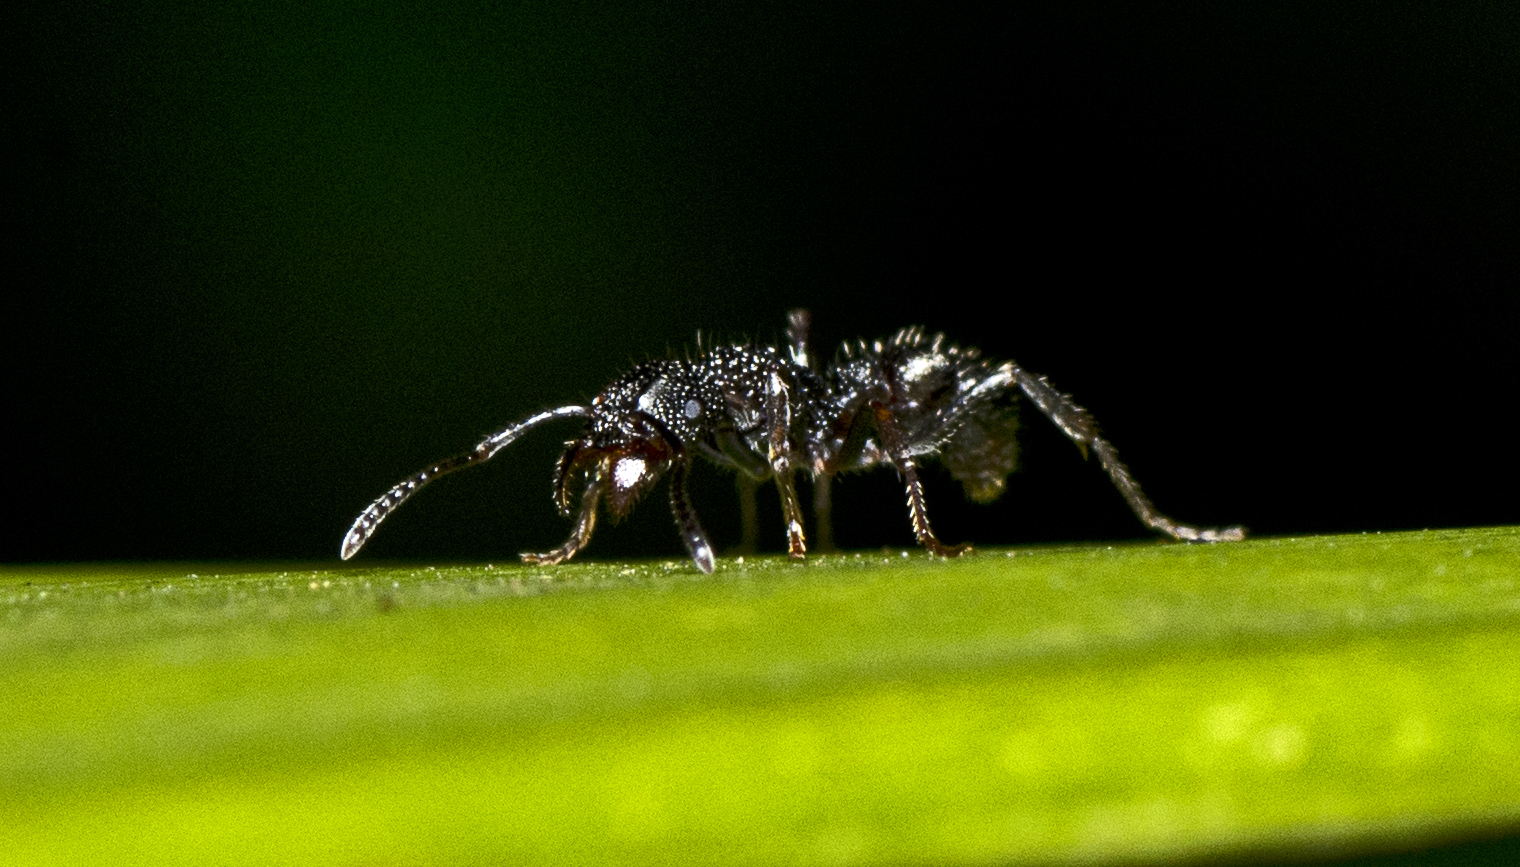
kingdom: Animalia
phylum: Arthropoda
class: Insecta
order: Hymenoptera
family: Formicidae
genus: Rhytidoponera
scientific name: Rhytidoponera anceps
